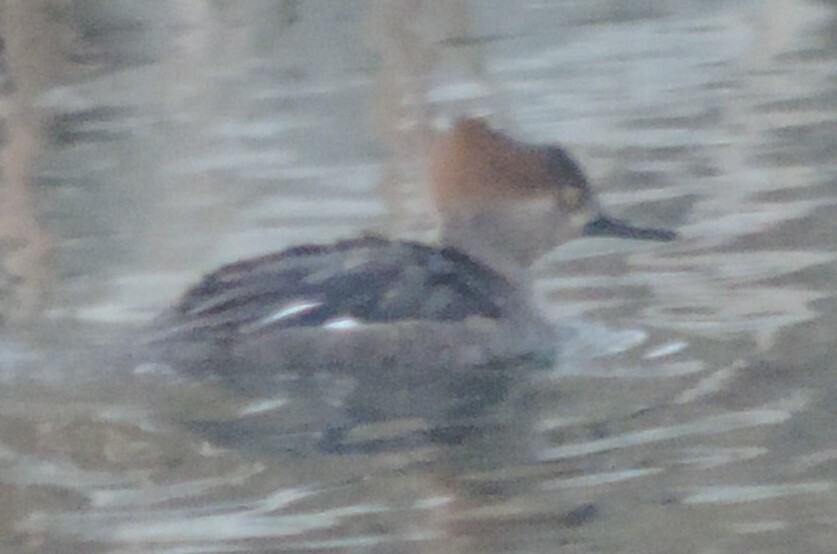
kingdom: Animalia
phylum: Chordata
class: Aves
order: Anseriformes
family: Anatidae
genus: Lophodytes
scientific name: Lophodytes cucullatus
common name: Hooded merganser
